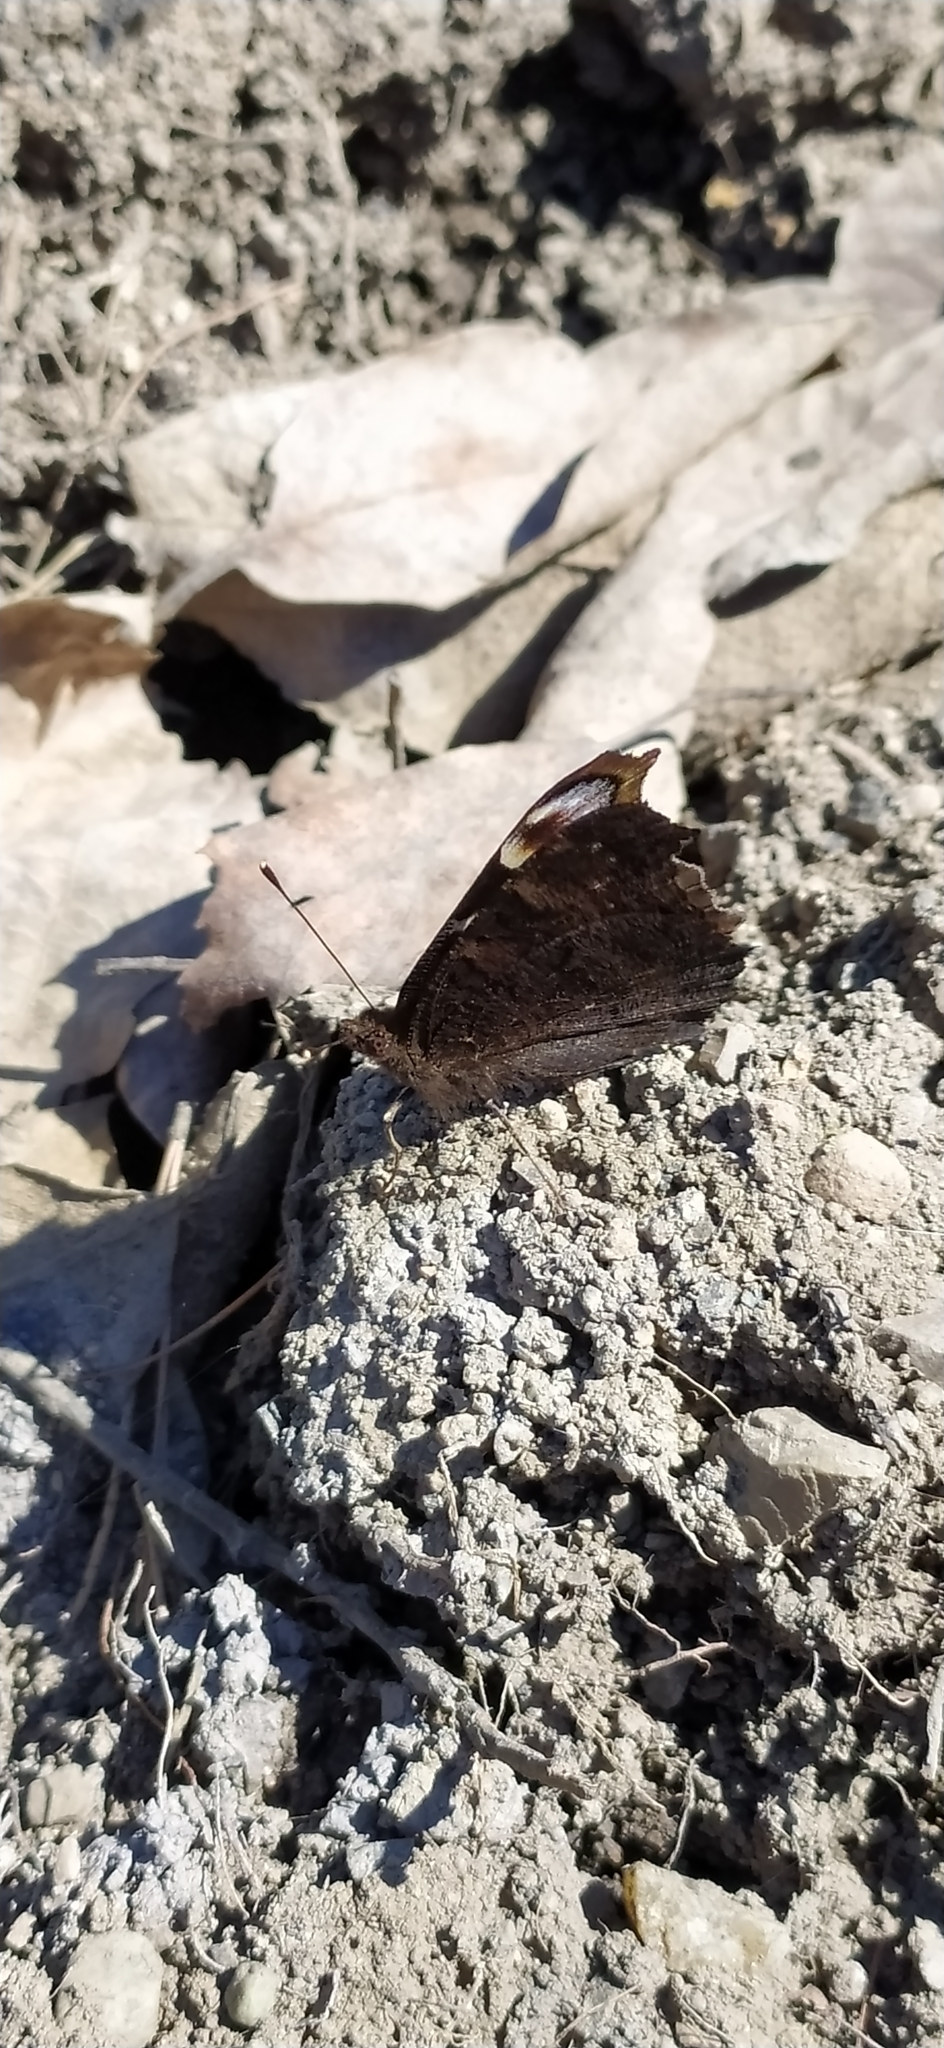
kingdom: Animalia
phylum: Arthropoda
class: Insecta
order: Lepidoptera
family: Nymphalidae
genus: Aglais
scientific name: Aglais io
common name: Peacock
